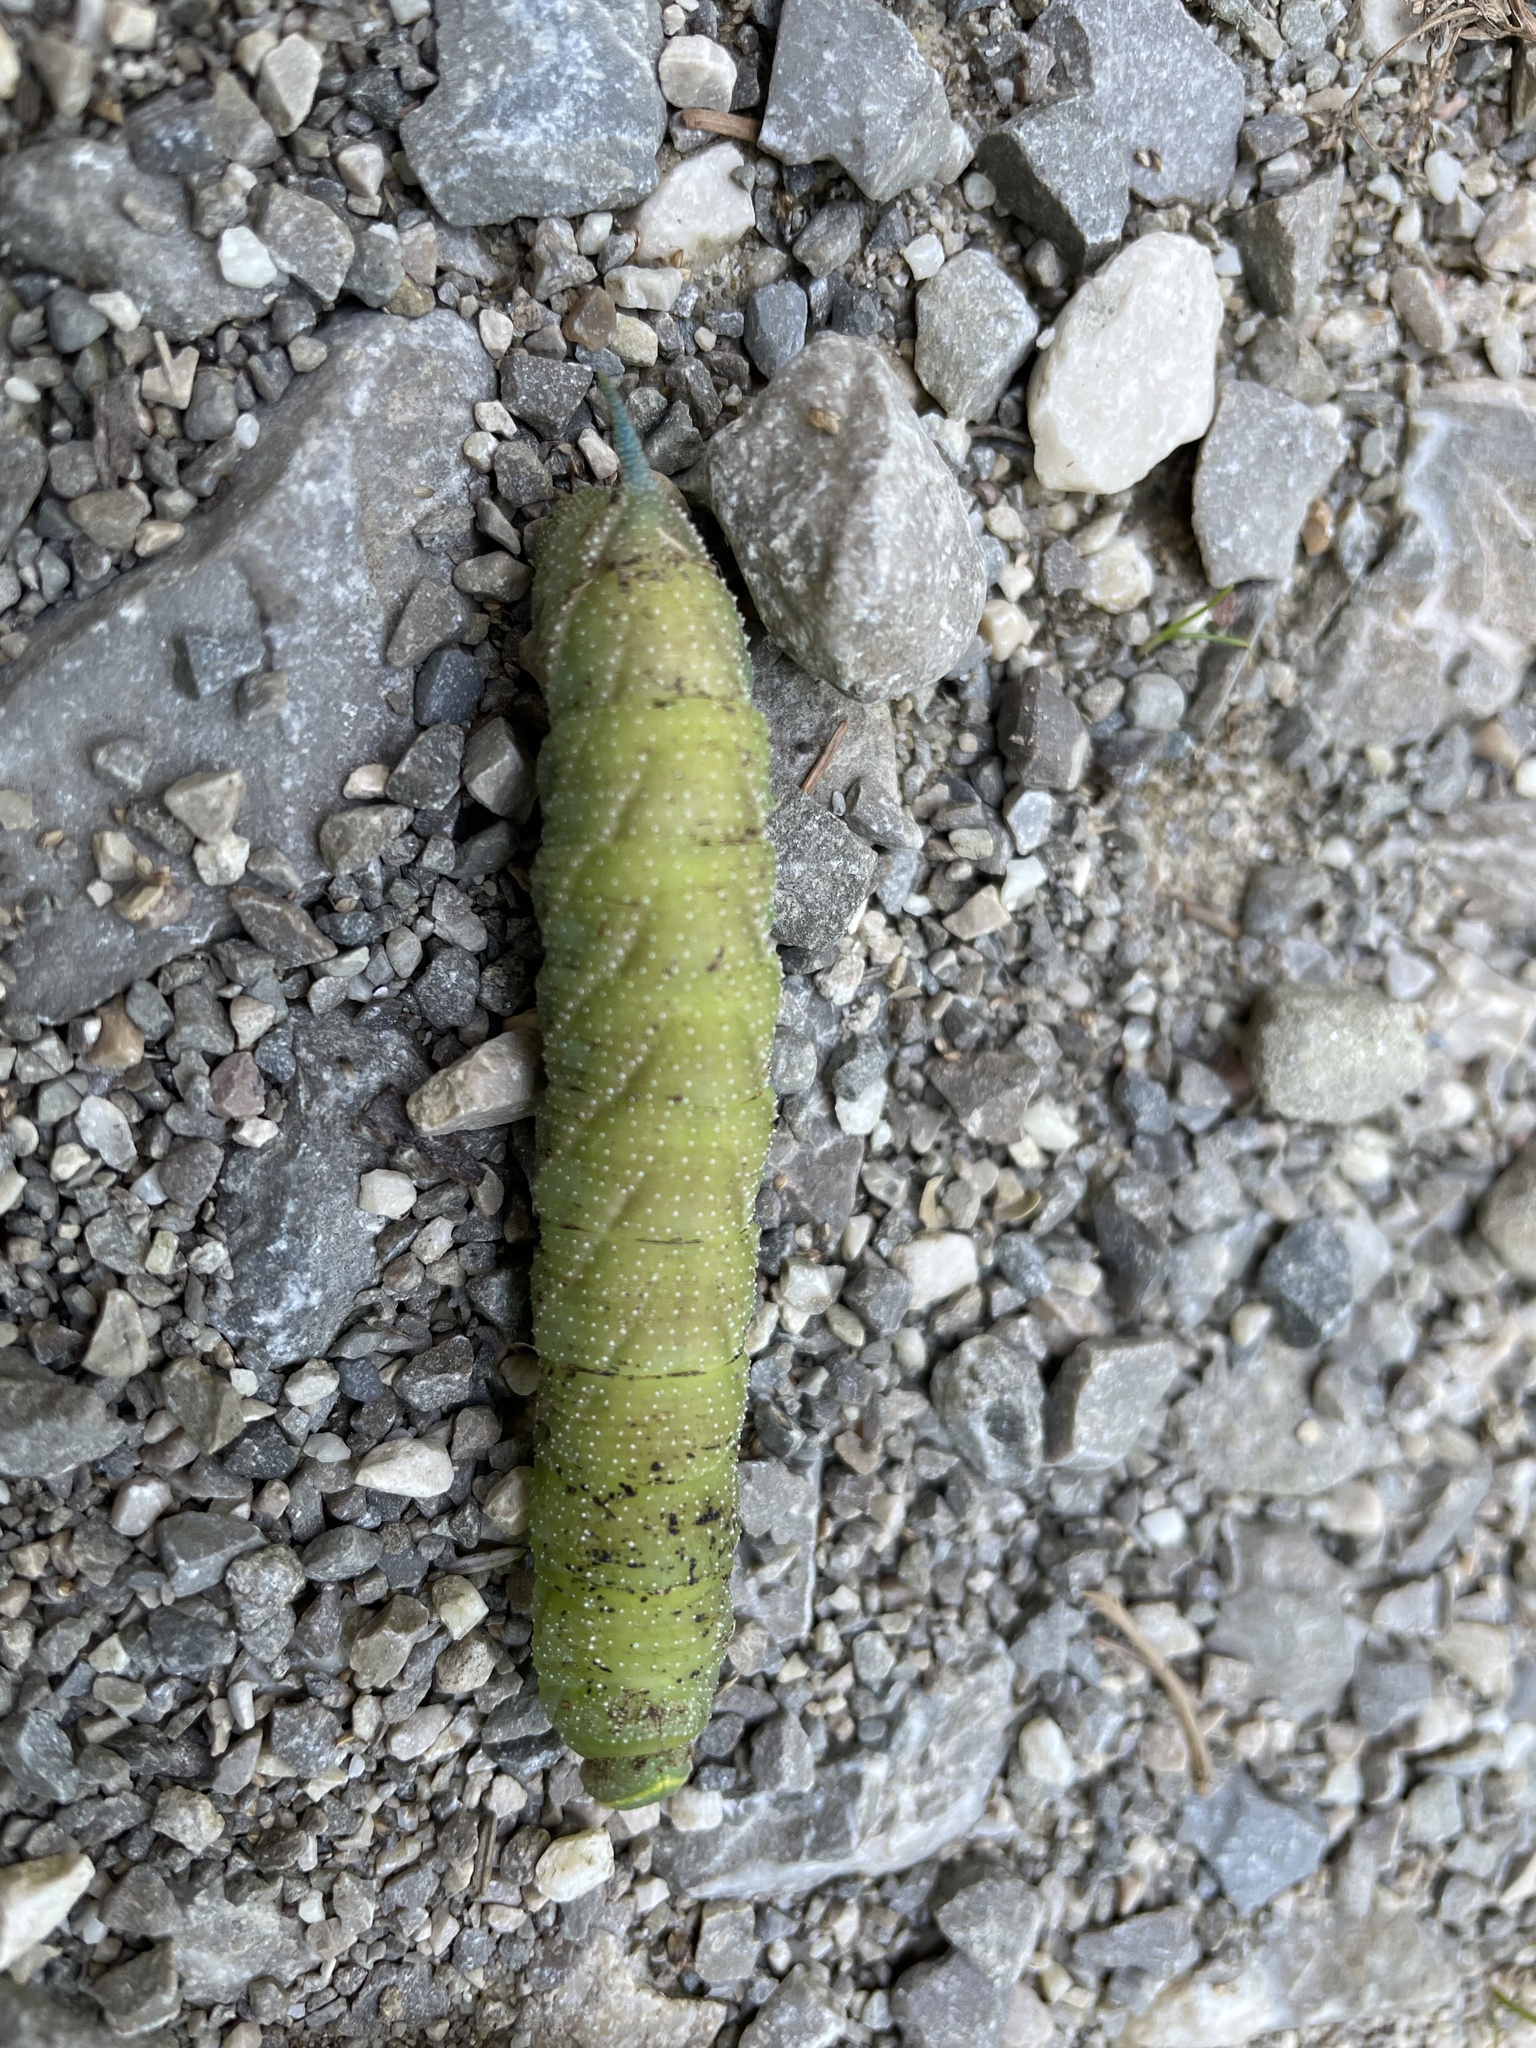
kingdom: Animalia
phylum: Arthropoda
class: Insecta
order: Lepidoptera
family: Sphingidae
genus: Smerinthus
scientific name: Smerinthus ocellata
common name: Eyed hawk-moth
